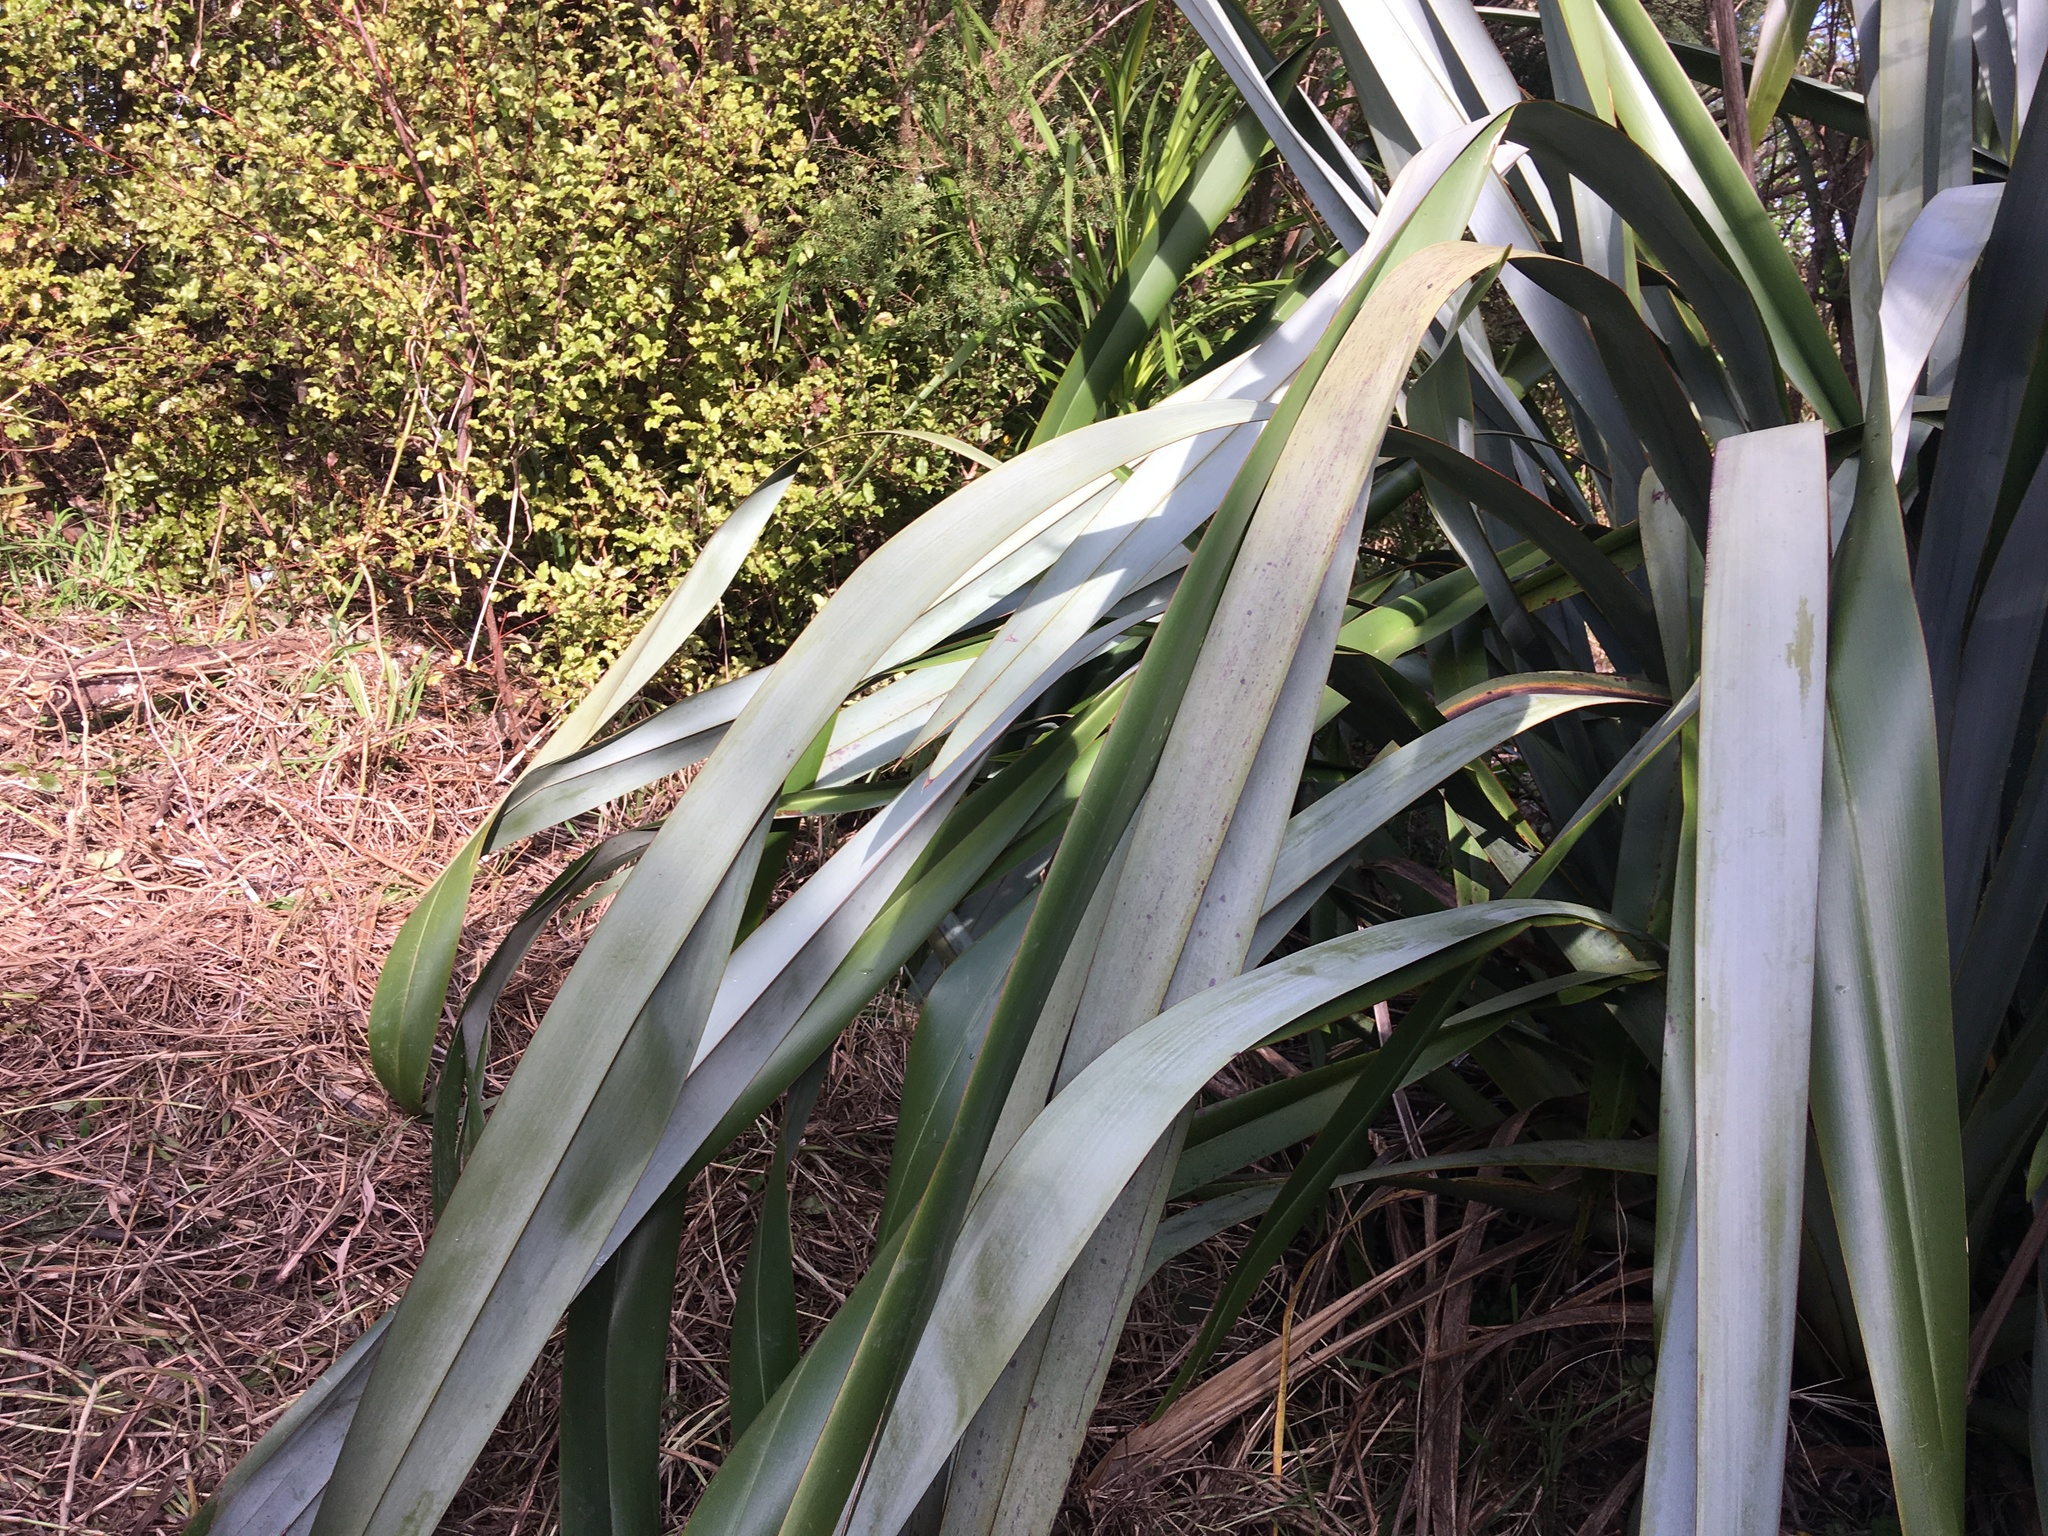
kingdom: Plantae
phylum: Tracheophyta
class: Liliopsida
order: Asparagales
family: Asphodelaceae
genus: Phormium
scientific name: Phormium tenax
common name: New zealand flax
